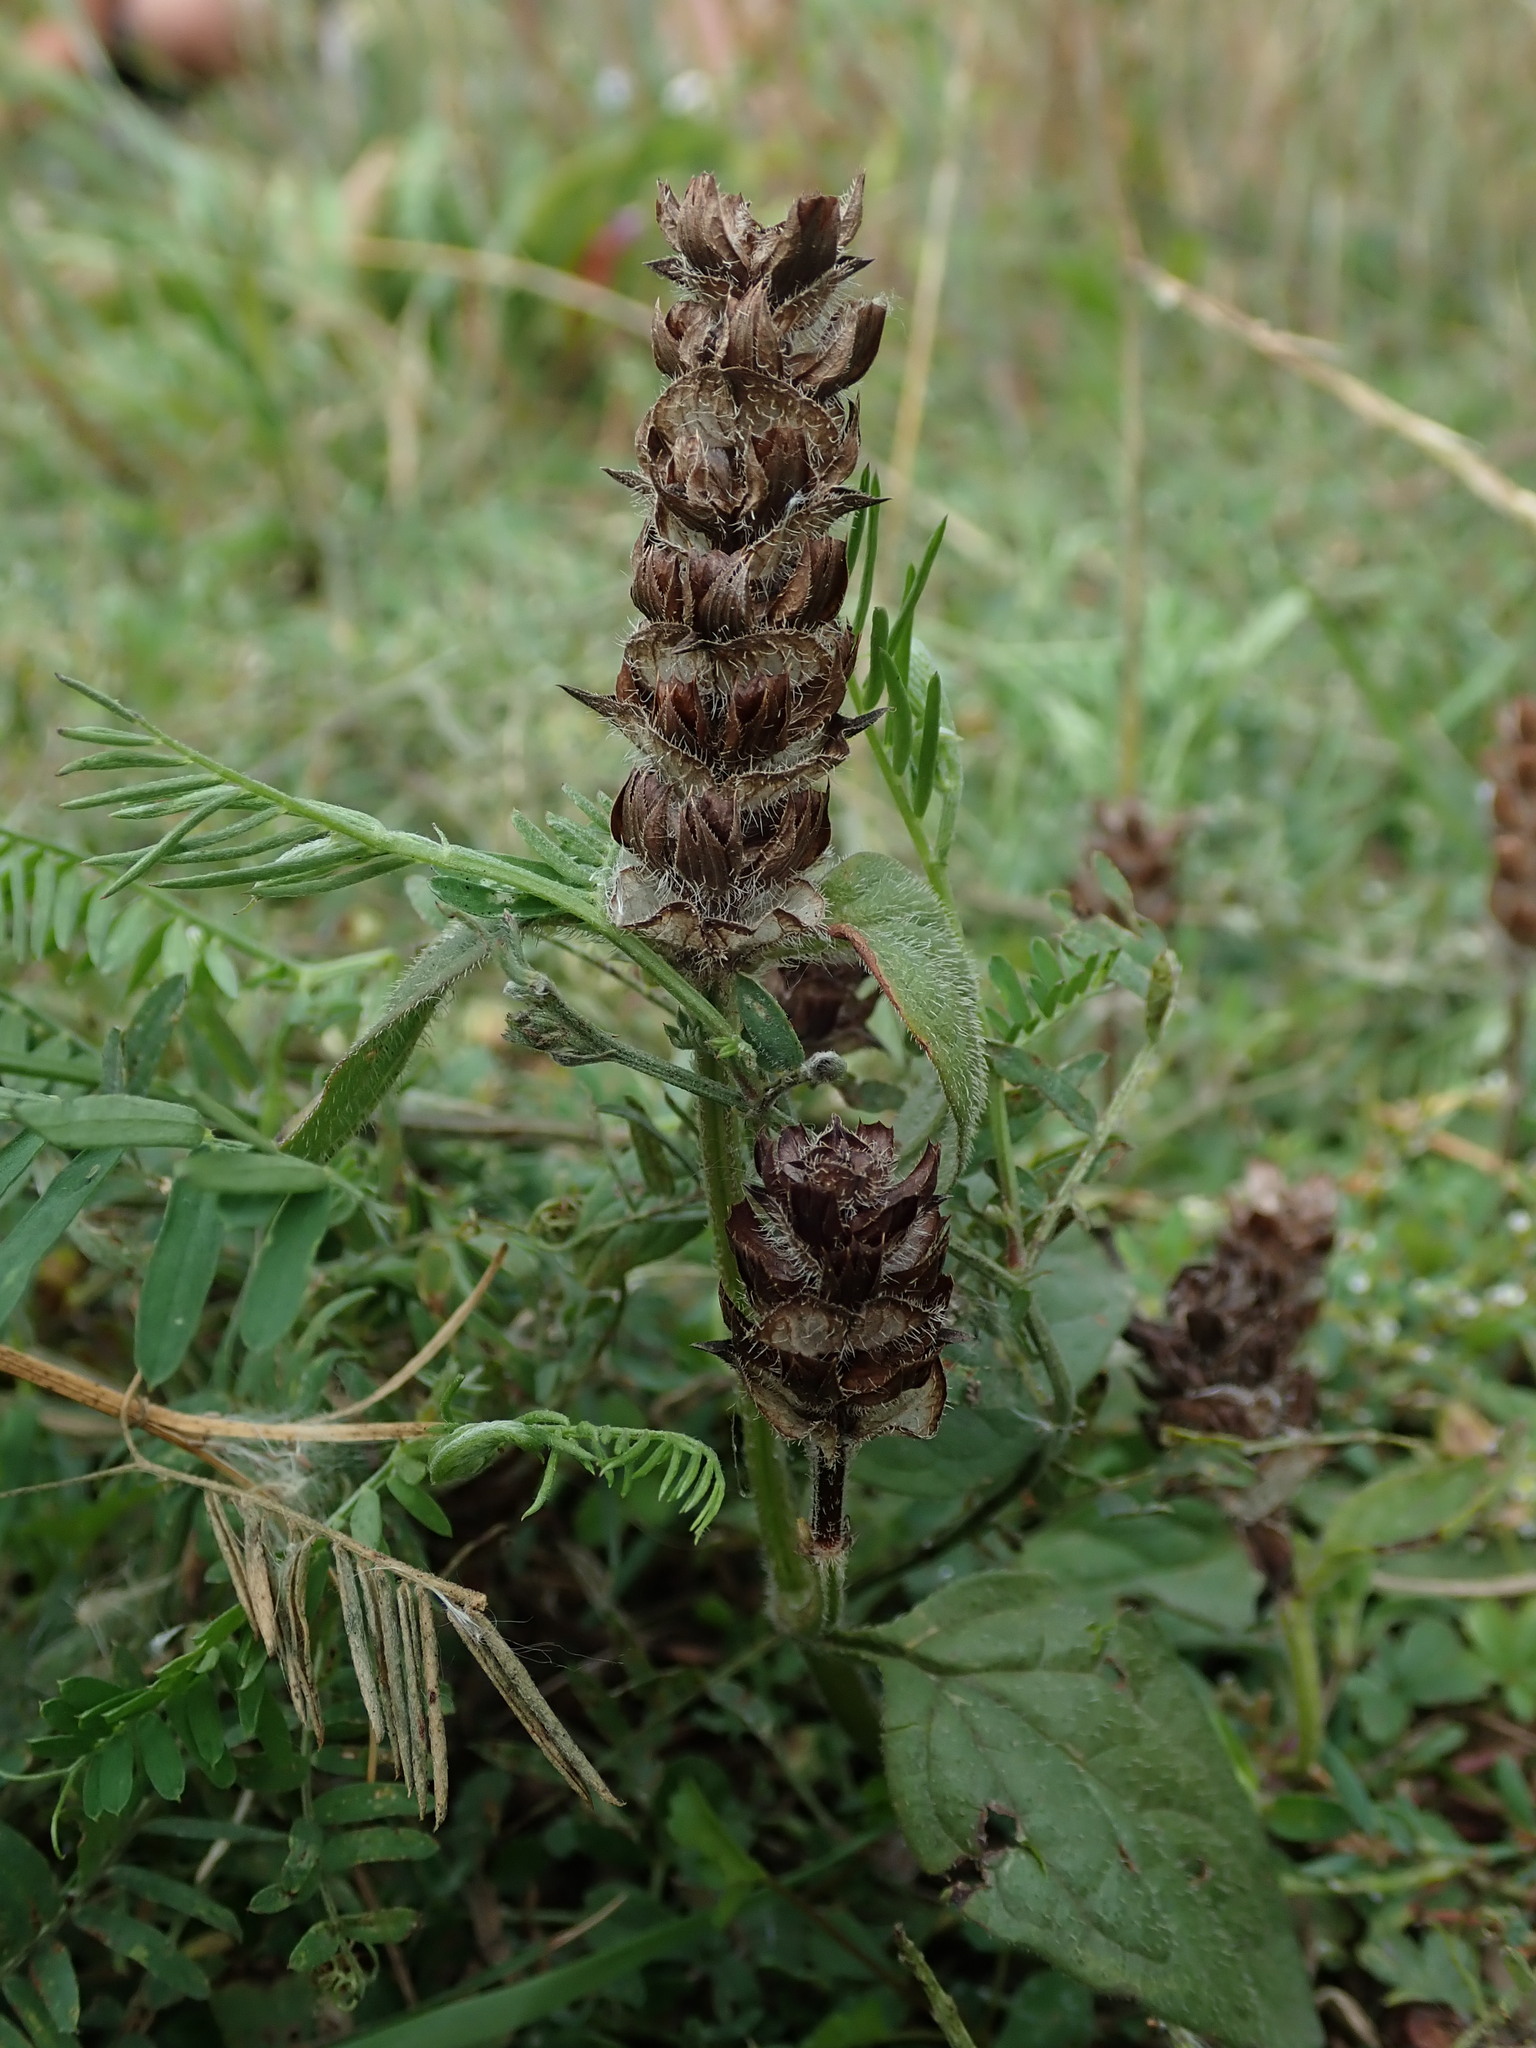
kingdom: Plantae
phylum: Tracheophyta
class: Magnoliopsida
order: Lamiales
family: Lamiaceae
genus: Prunella
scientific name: Prunella vulgaris
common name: Heal-all
